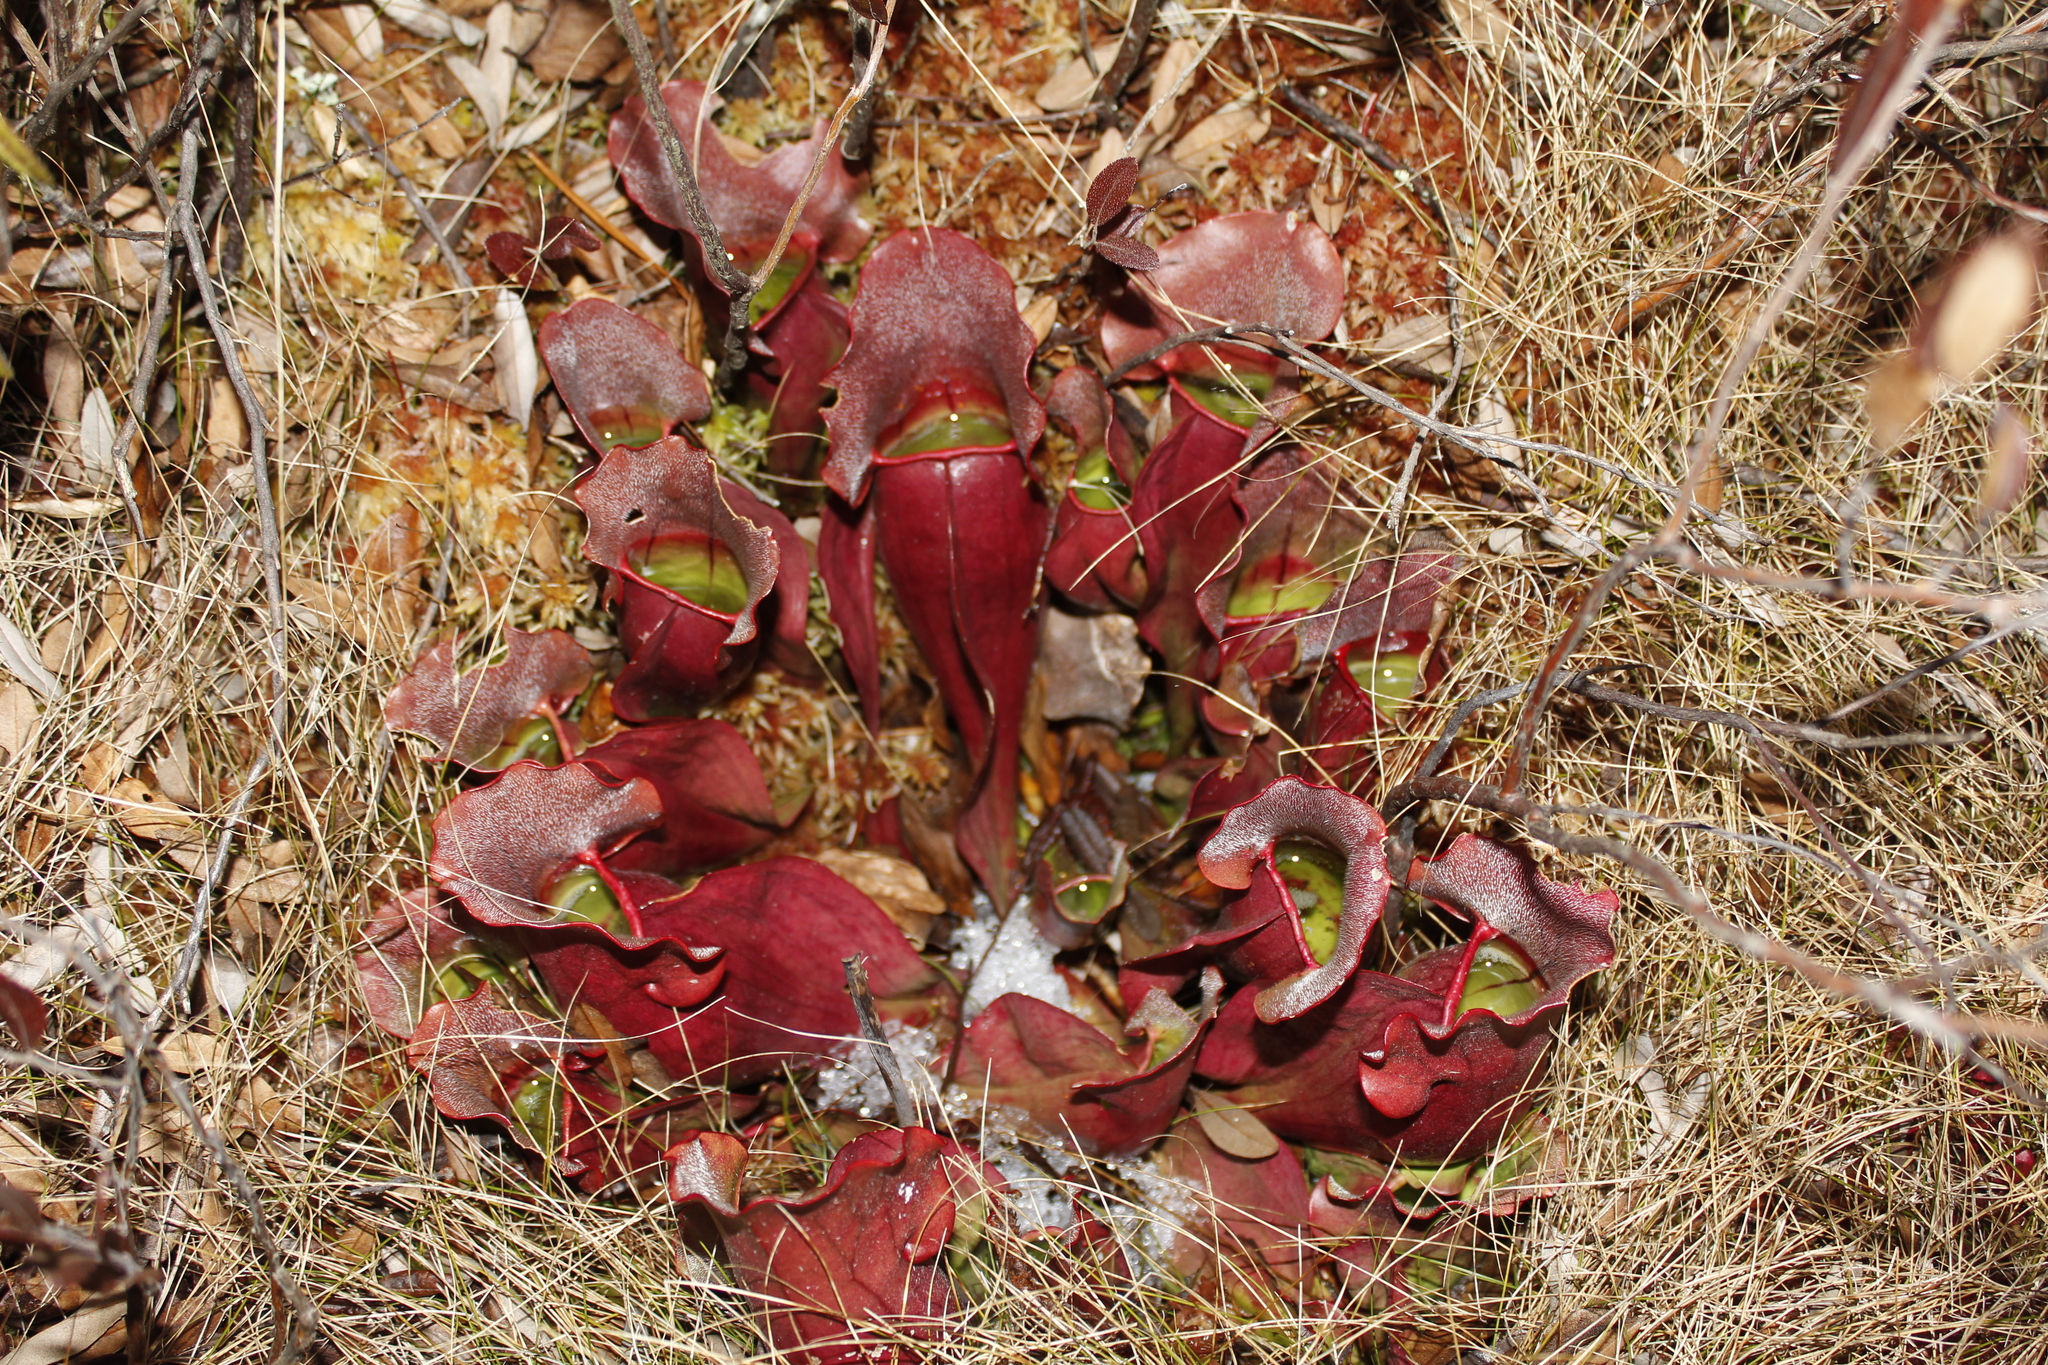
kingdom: Plantae
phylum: Tracheophyta
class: Magnoliopsida
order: Ericales
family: Sarraceniaceae
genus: Sarracenia
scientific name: Sarracenia purpurea
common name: Pitcherplant
